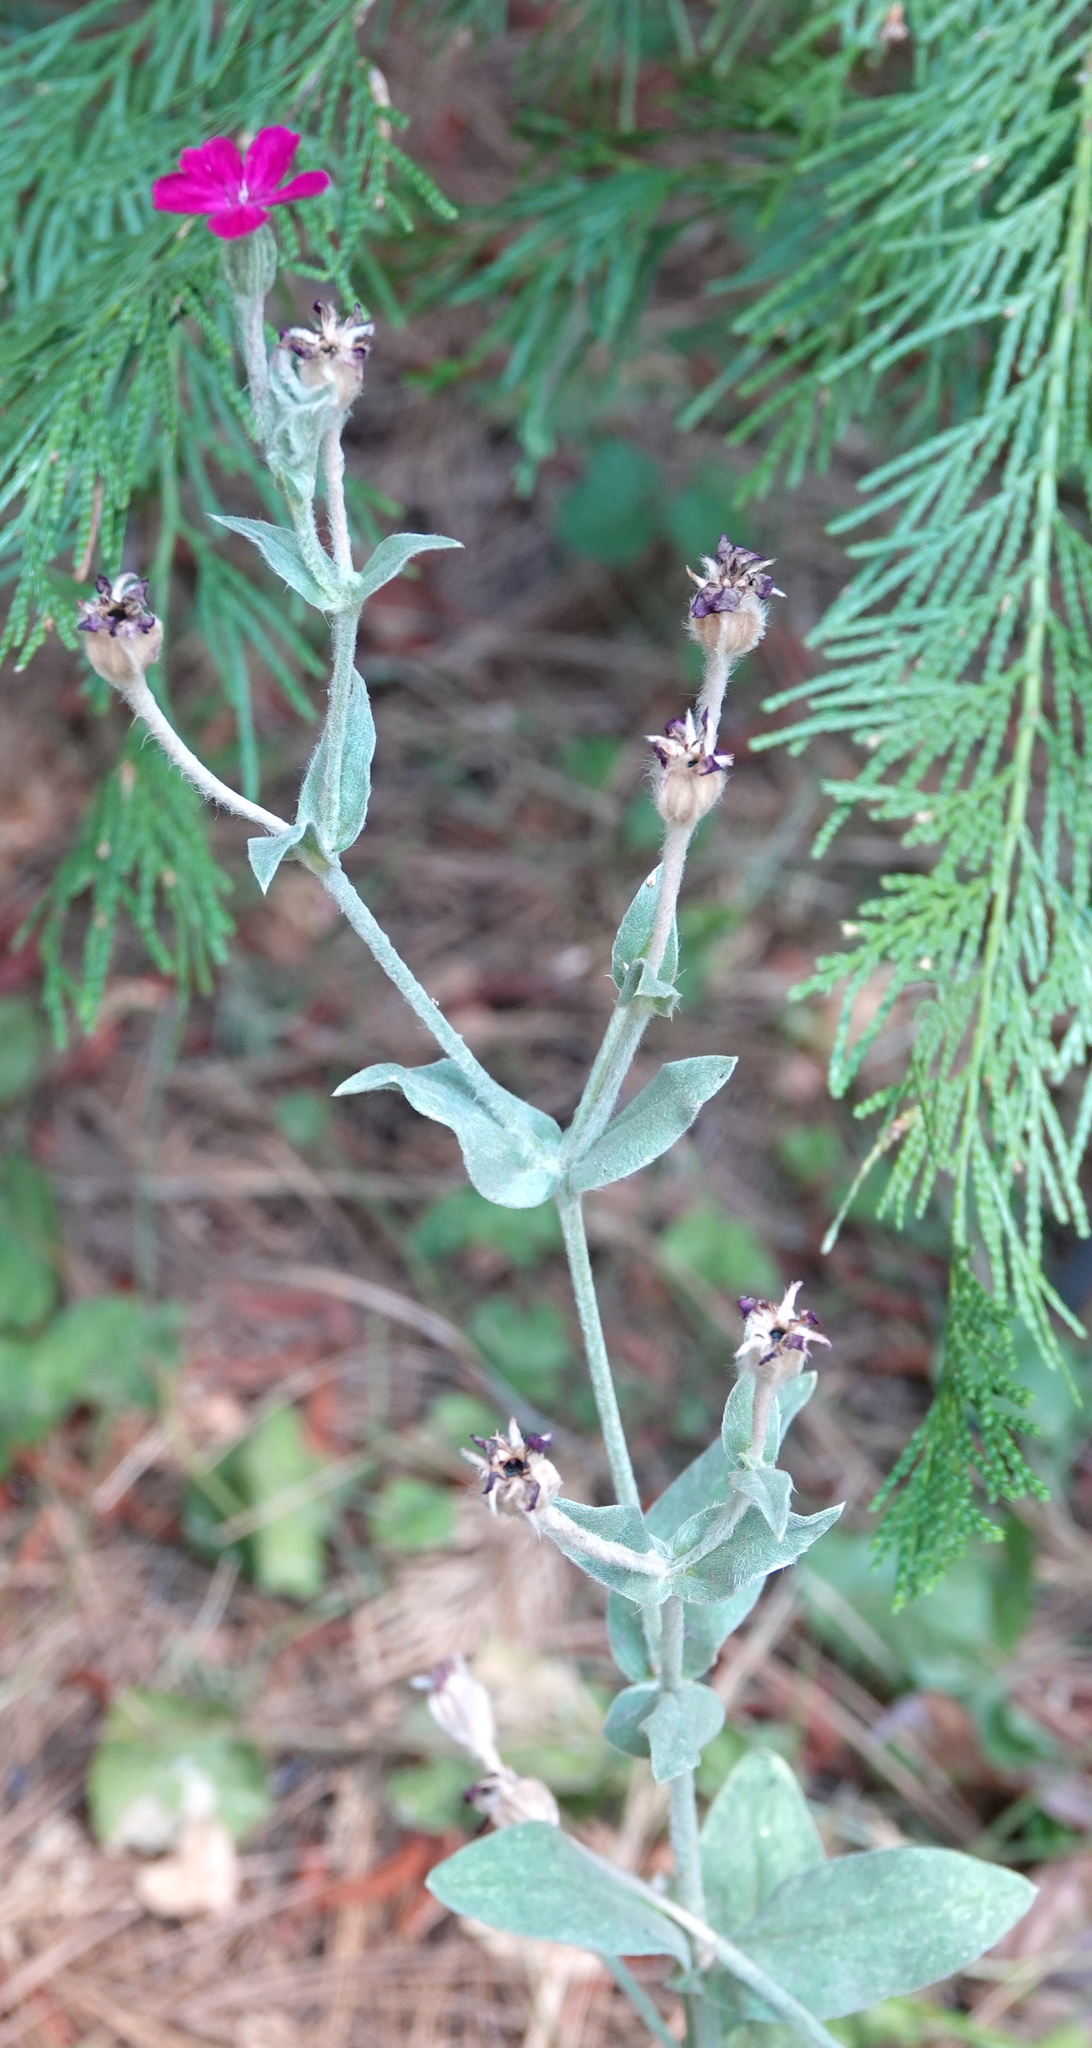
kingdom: Plantae
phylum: Tracheophyta
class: Magnoliopsida
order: Caryophyllales
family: Caryophyllaceae
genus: Silene
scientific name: Silene coronaria
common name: Rose campion
